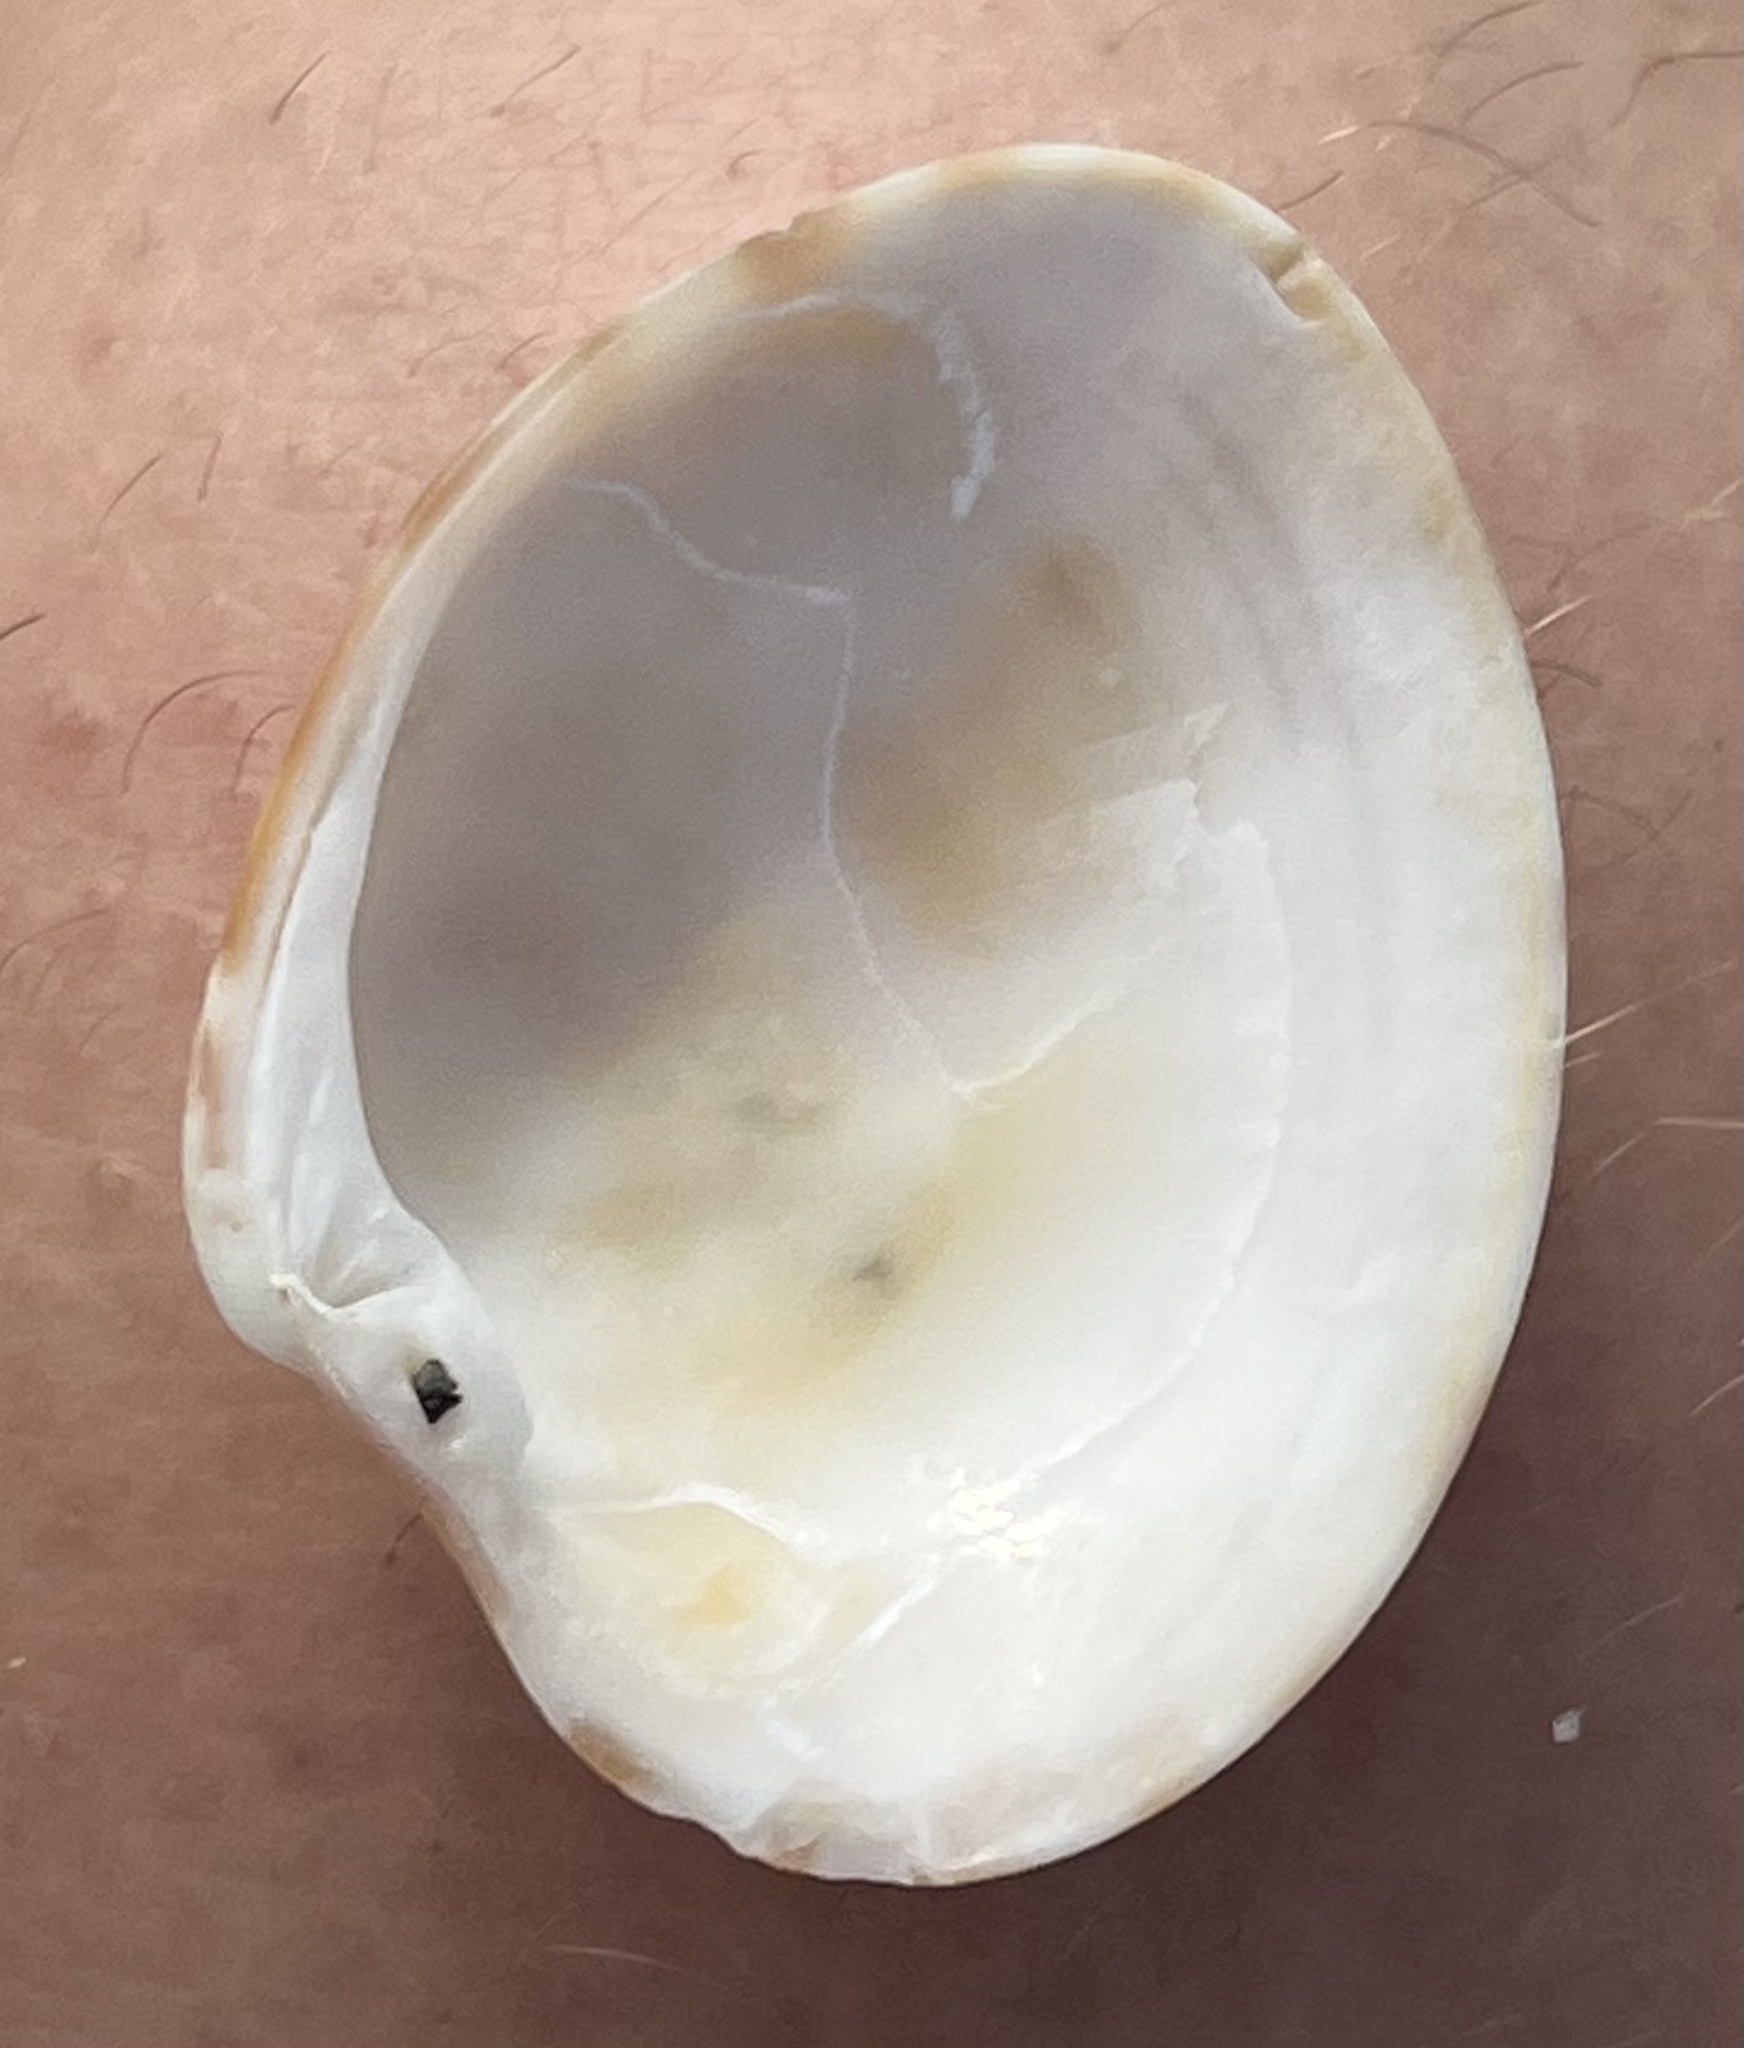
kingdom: Animalia
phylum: Mollusca
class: Bivalvia
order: Venerida
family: Veneridae
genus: Megapitaria
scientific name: Megapitaria maculata
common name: Calico clam
